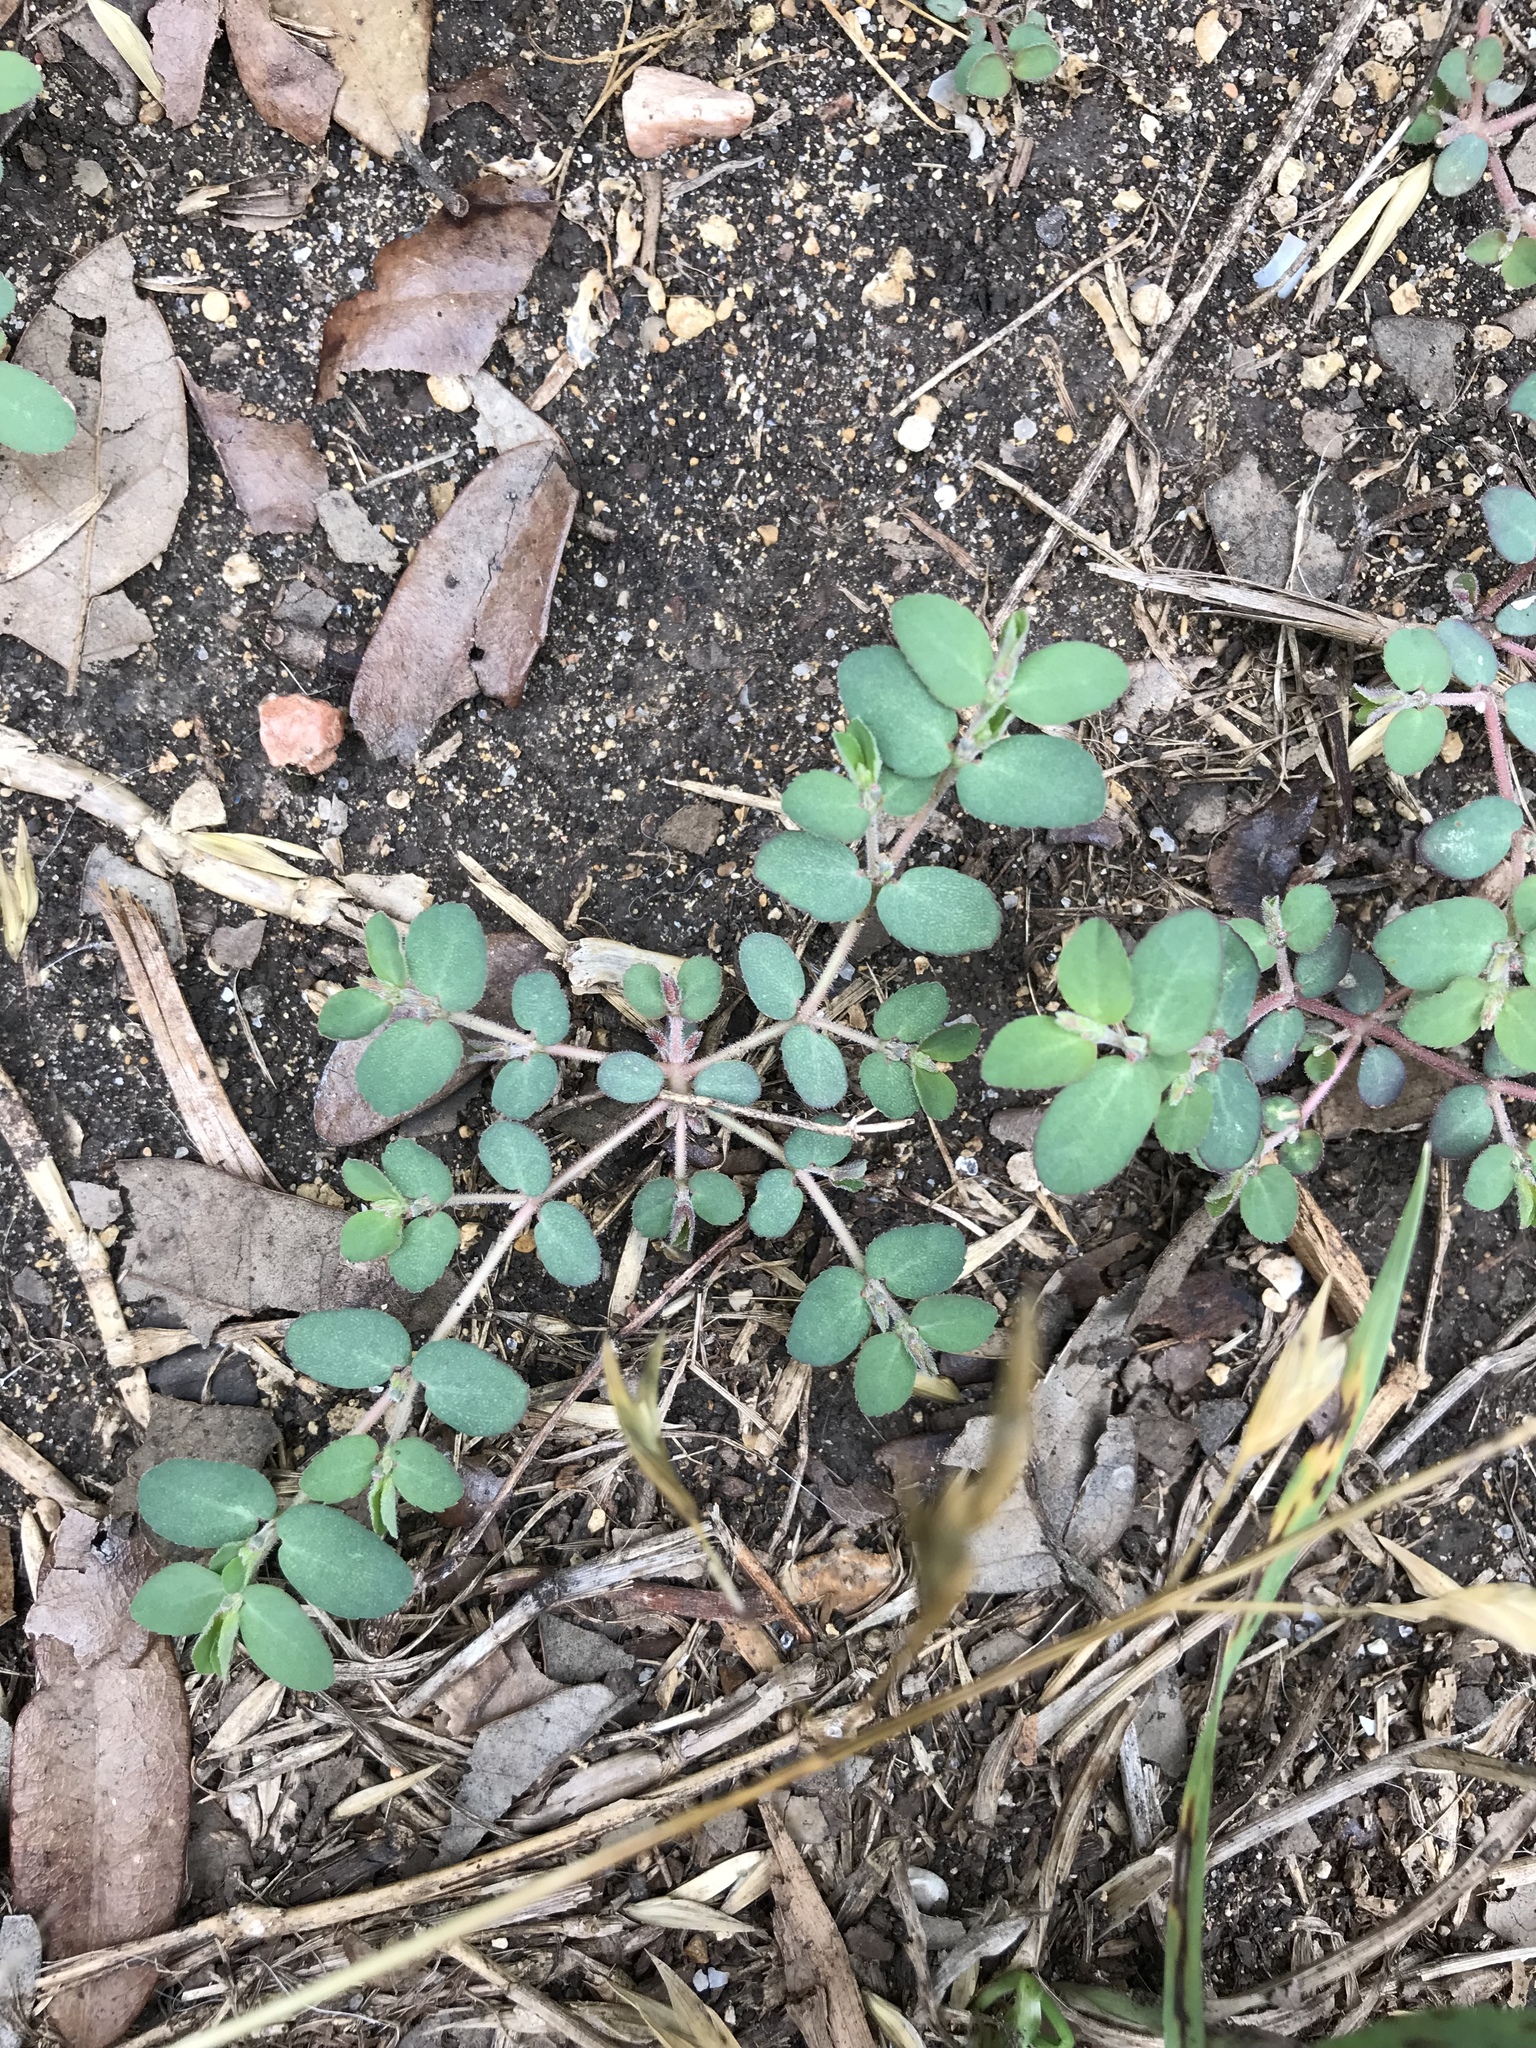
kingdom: Plantae
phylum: Tracheophyta
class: Magnoliopsida
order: Malpighiales
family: Euphorbiaceae
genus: Euphorbia
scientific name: Euphorbia prostrata
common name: Prostrate sandmat
